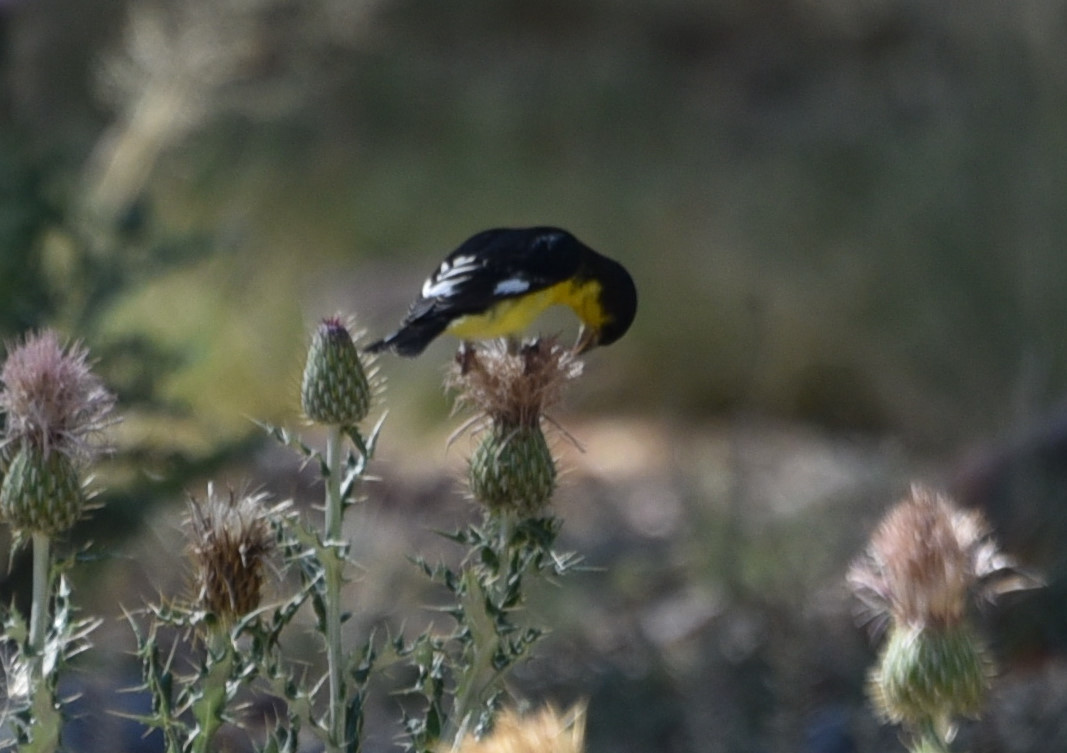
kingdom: Animalia
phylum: Chordata
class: Aves
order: Passeriformes
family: Fringillidae
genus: Spinus
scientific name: Spinus psaltria
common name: Lesser goldfinch
